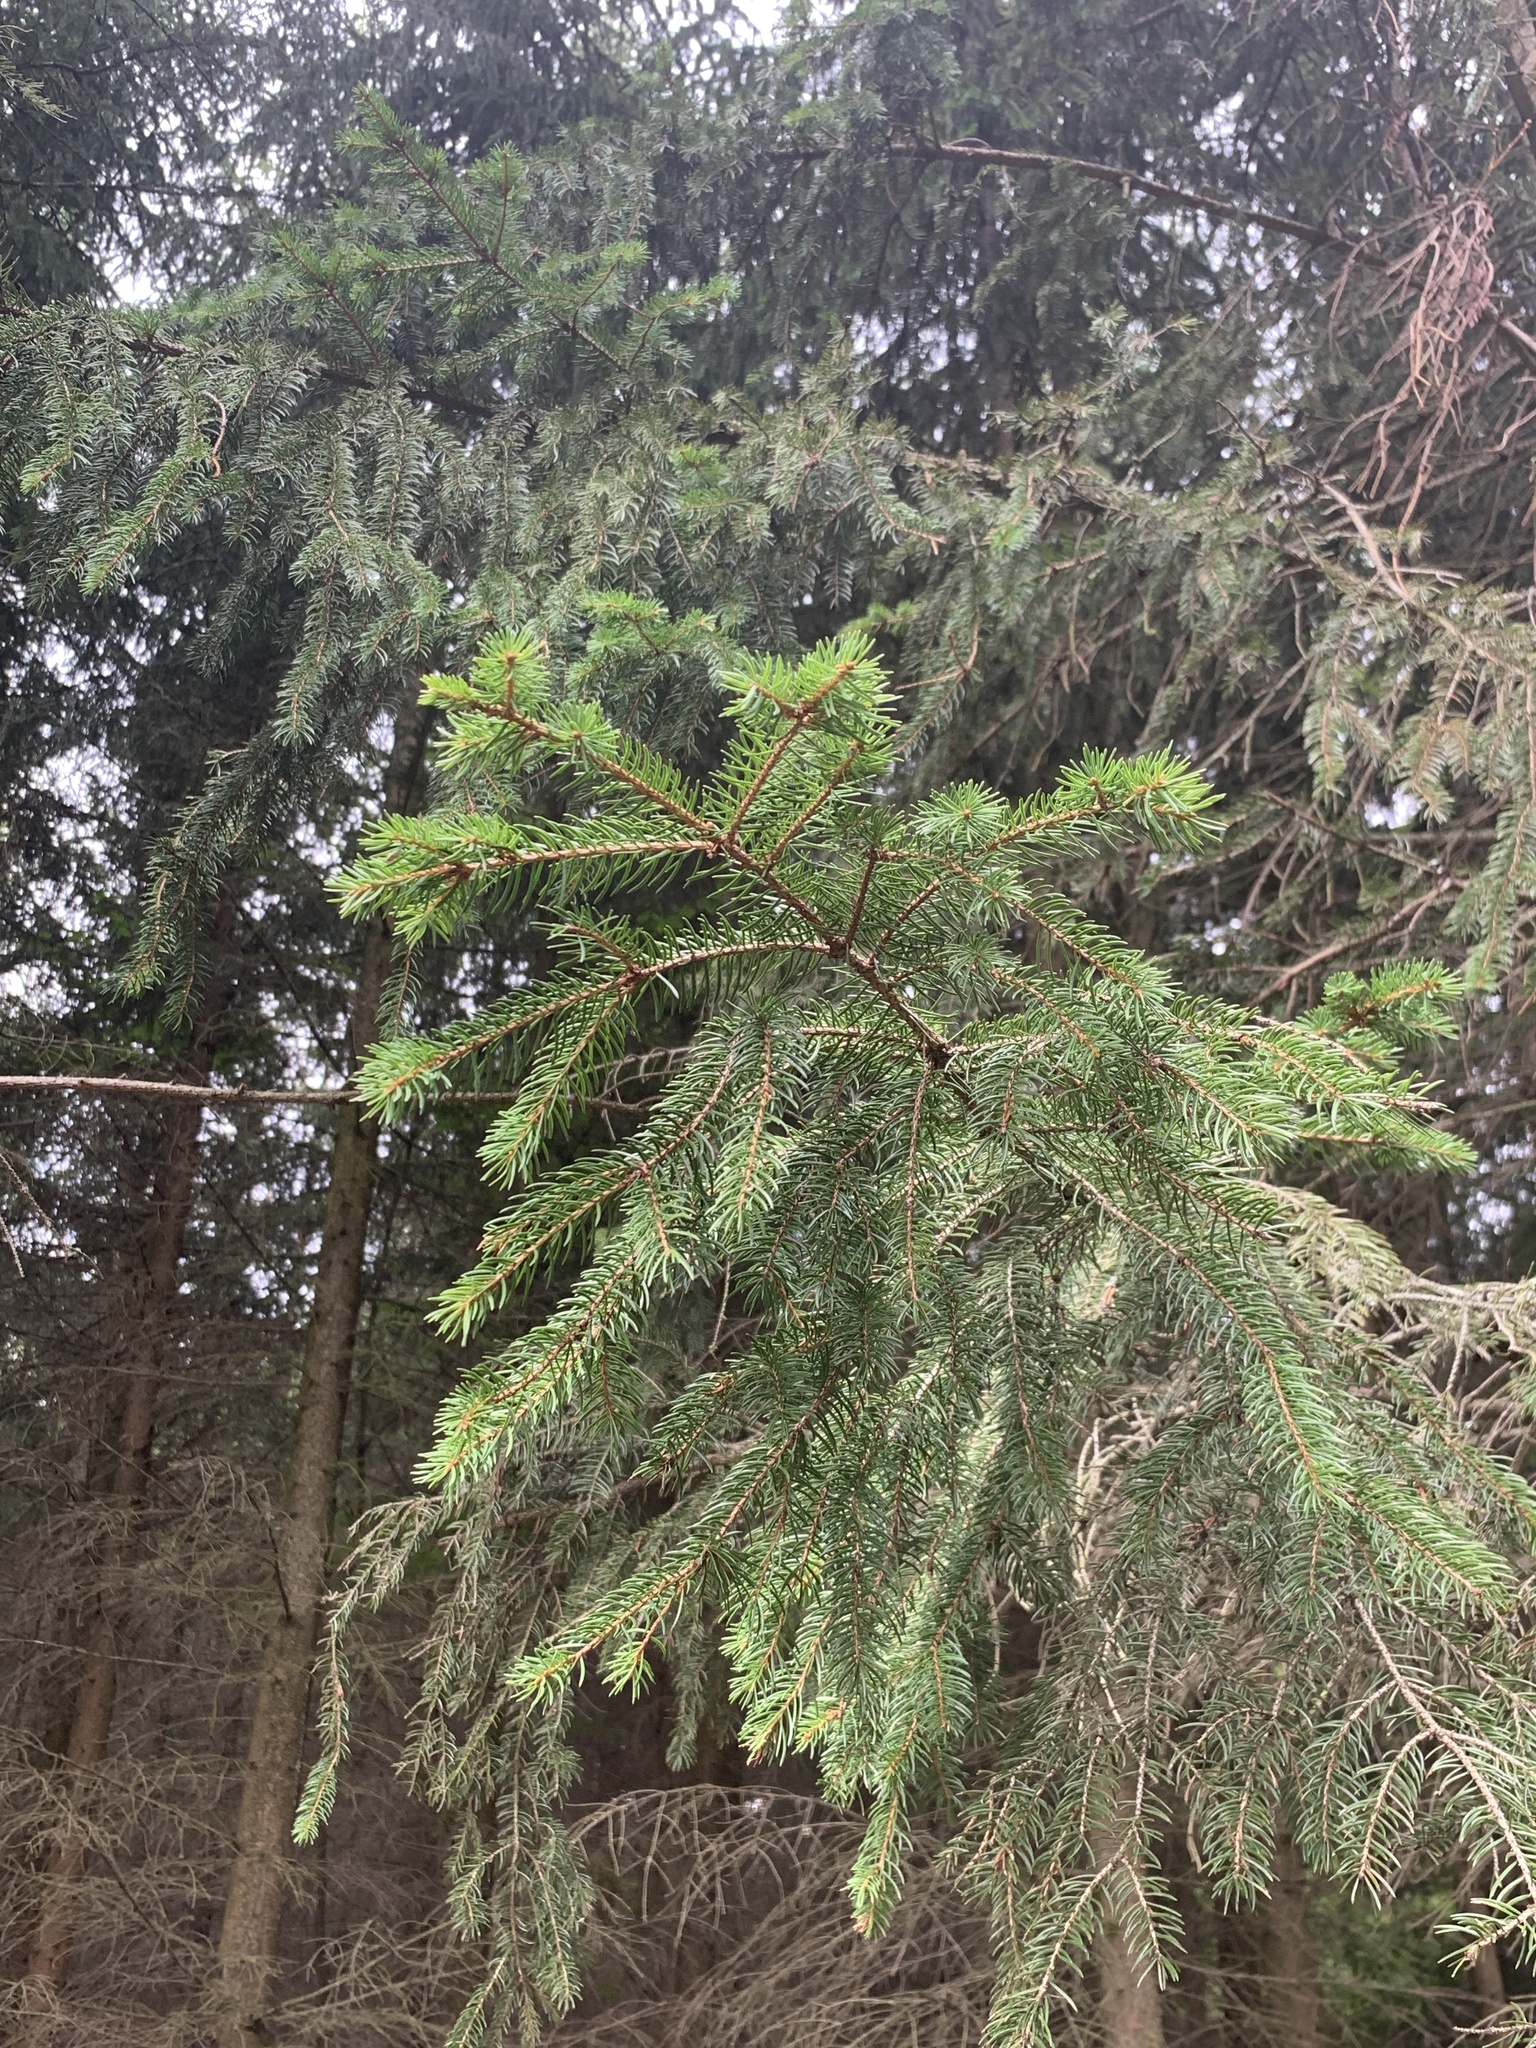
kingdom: Plantae
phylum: Tracheophyta
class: Pinopsida
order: Pinales
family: Pinaceae
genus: Picea
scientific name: Picea abies
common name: Norway spruce
